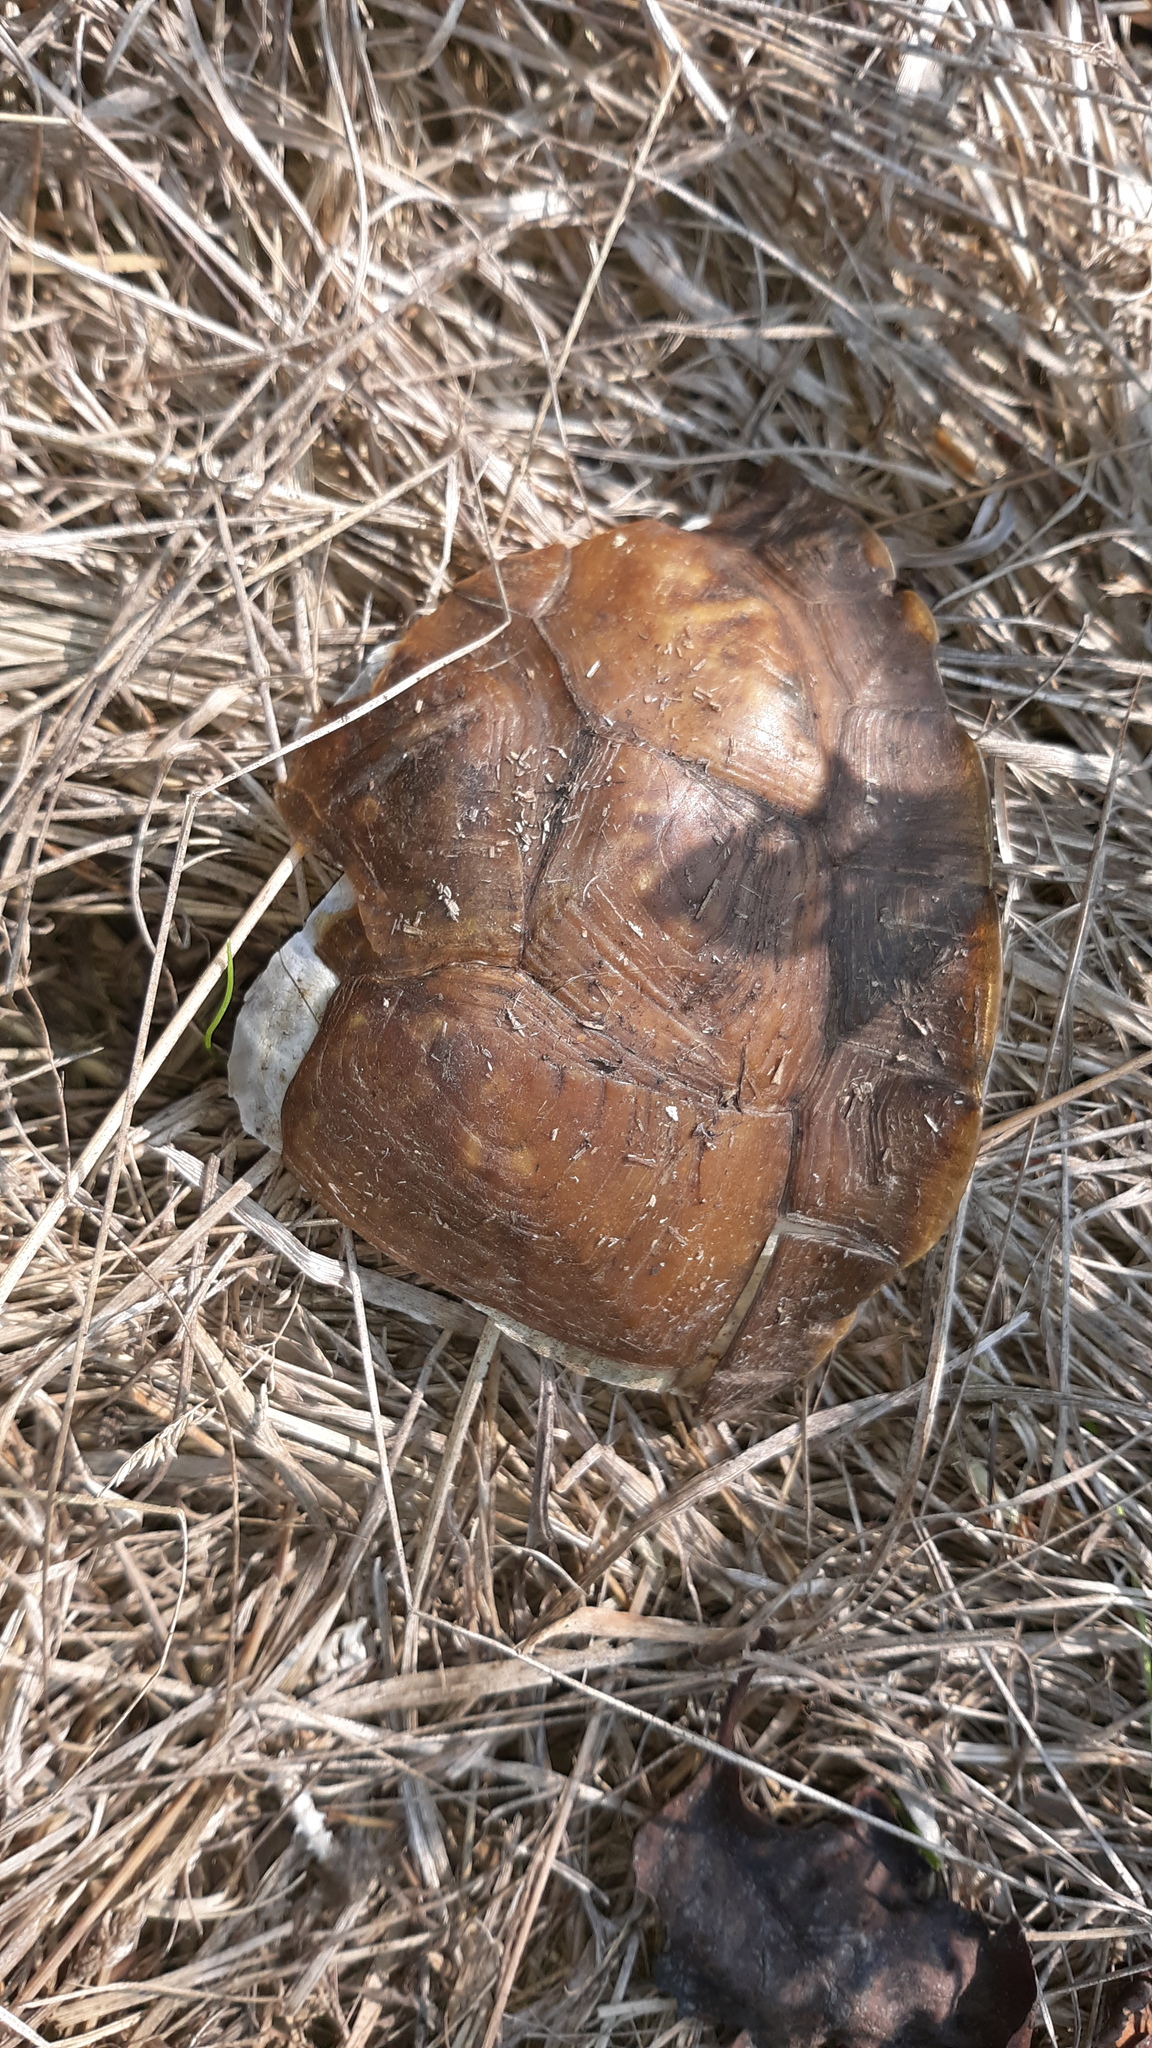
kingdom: Animalia
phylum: Chordata
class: Testudines
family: Emydidae
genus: Terrapene
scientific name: Terrapene carolina
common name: Common box turtle
